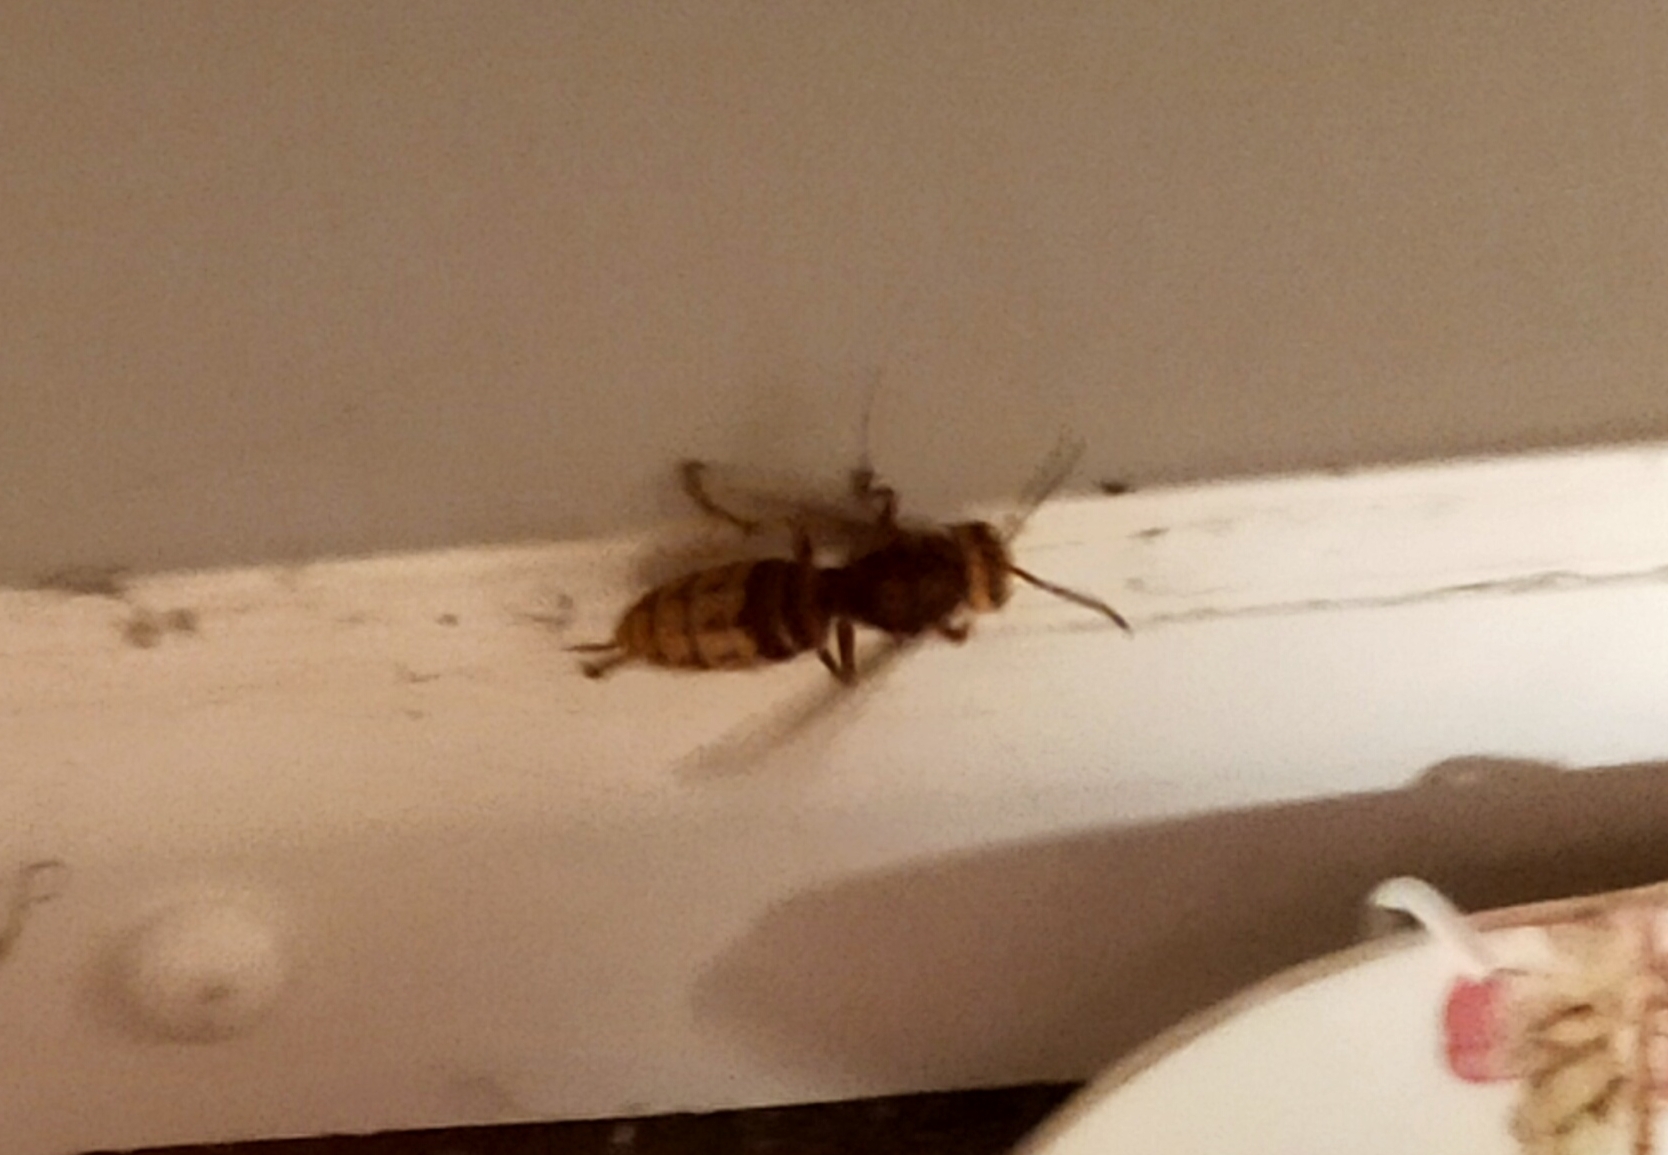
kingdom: Animalia
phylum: Arthropoda
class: Insecta
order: Hymenoptera
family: Vespidae
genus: Vespa
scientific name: Vespa crabro
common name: Hornet
